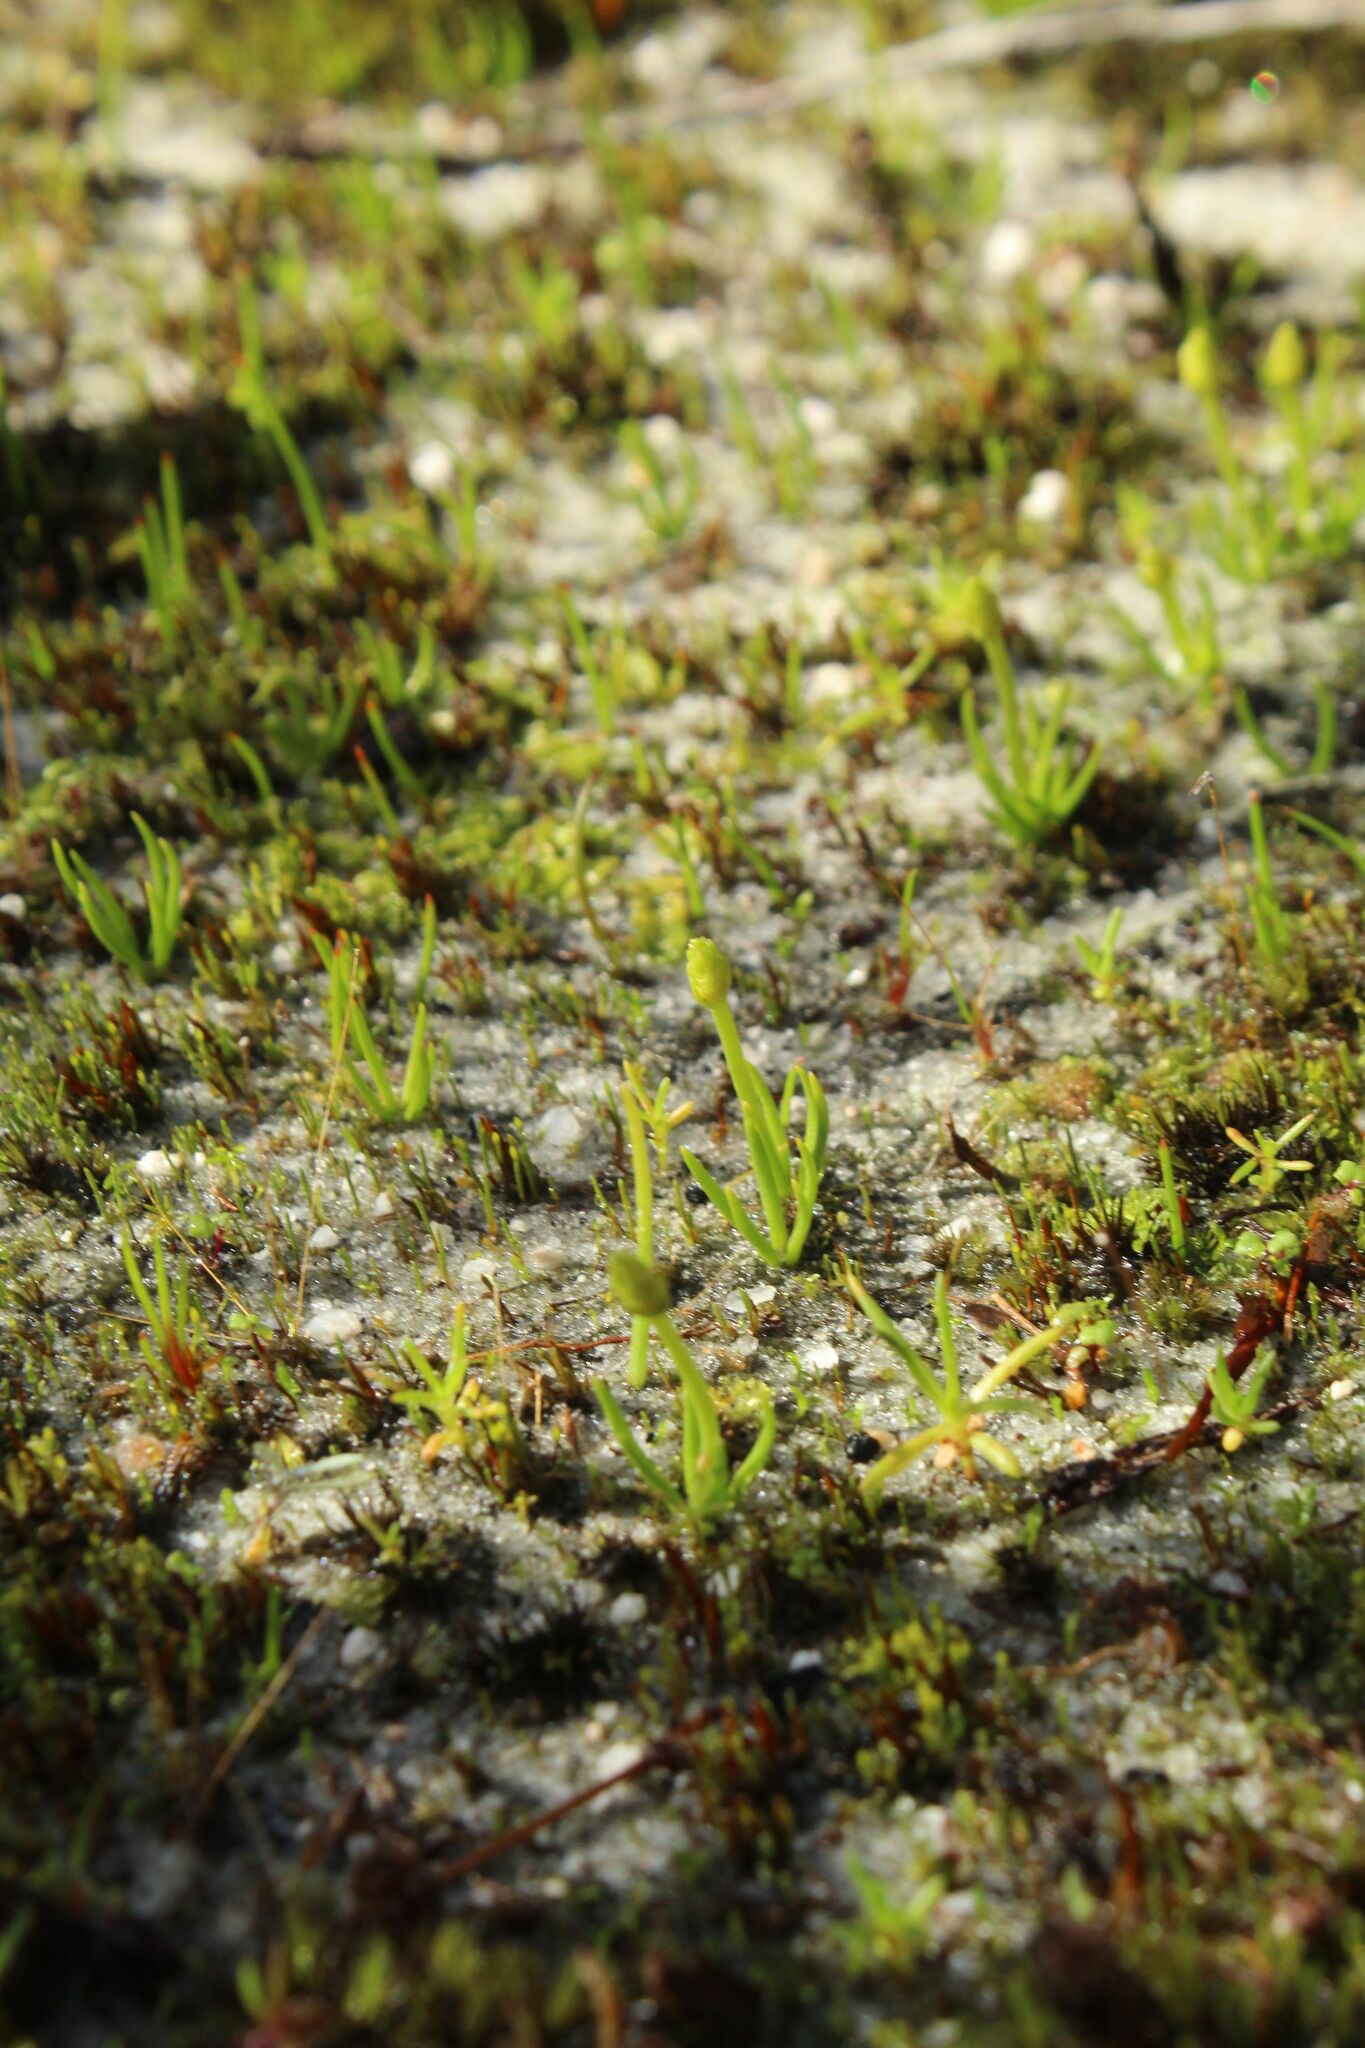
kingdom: Plantae
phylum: Tracheophyta
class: Lycopodiopsida
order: Lycopodiales
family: Lycopodiaceae
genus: Phylloglossum
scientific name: Phylloglossum drummondii
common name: Pigmy-club-moss
